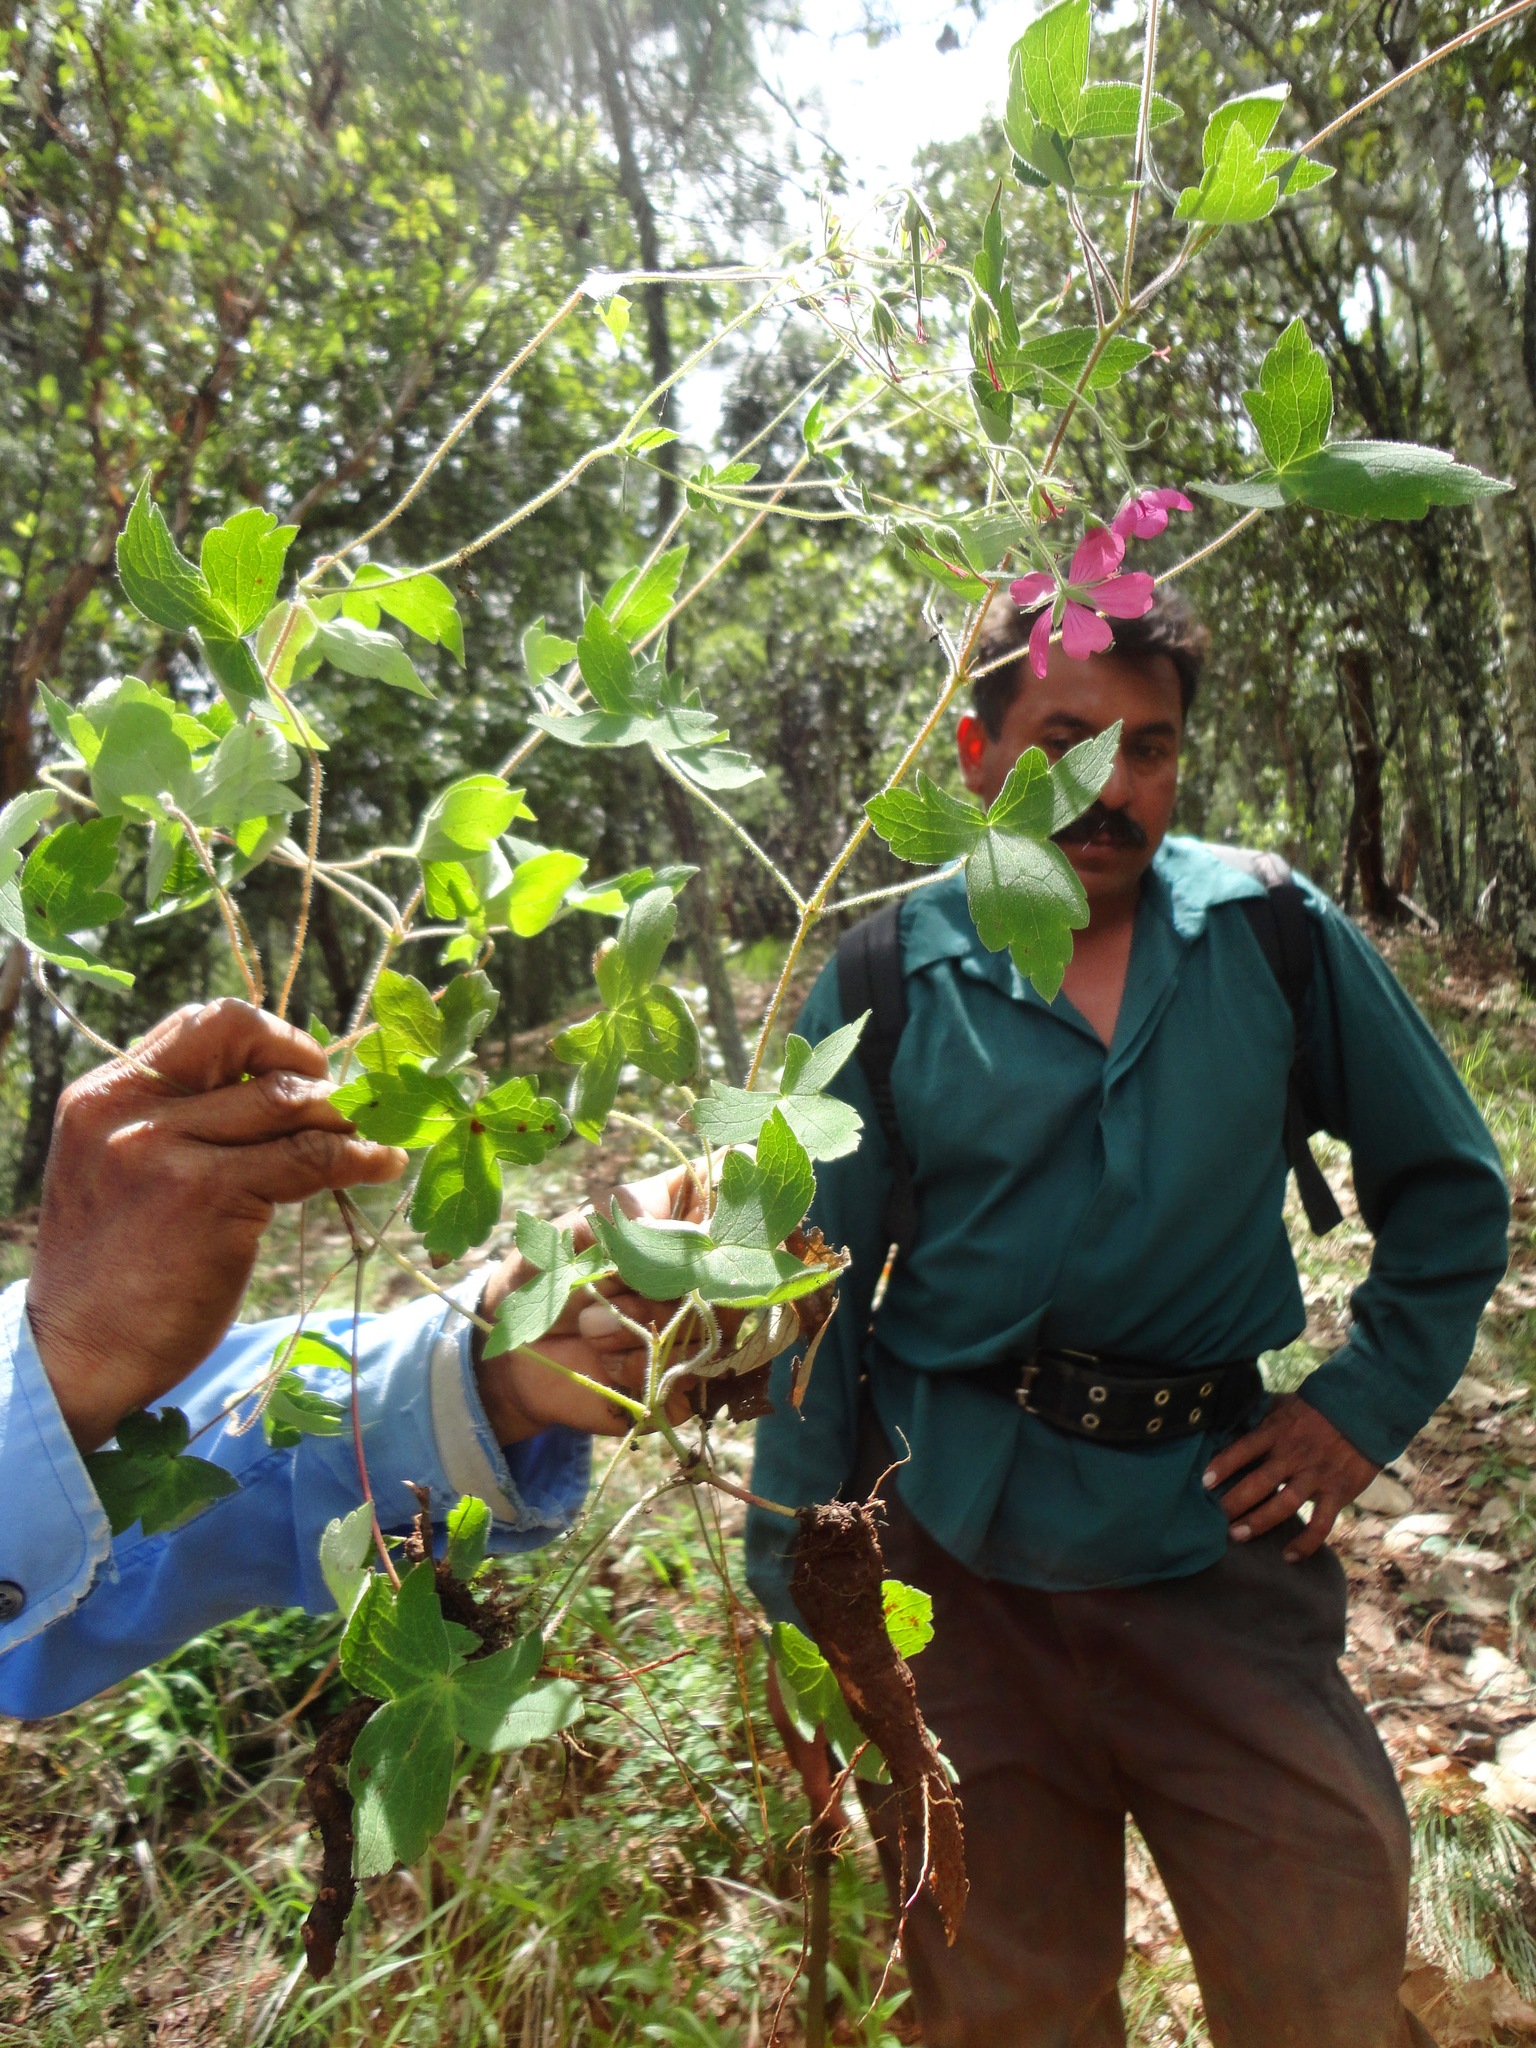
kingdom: Plantae
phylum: Tracheophyta
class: Magnoliopsida
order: Geraniales
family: Geraniaceae
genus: Geranium
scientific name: Geranium oaxacanum
